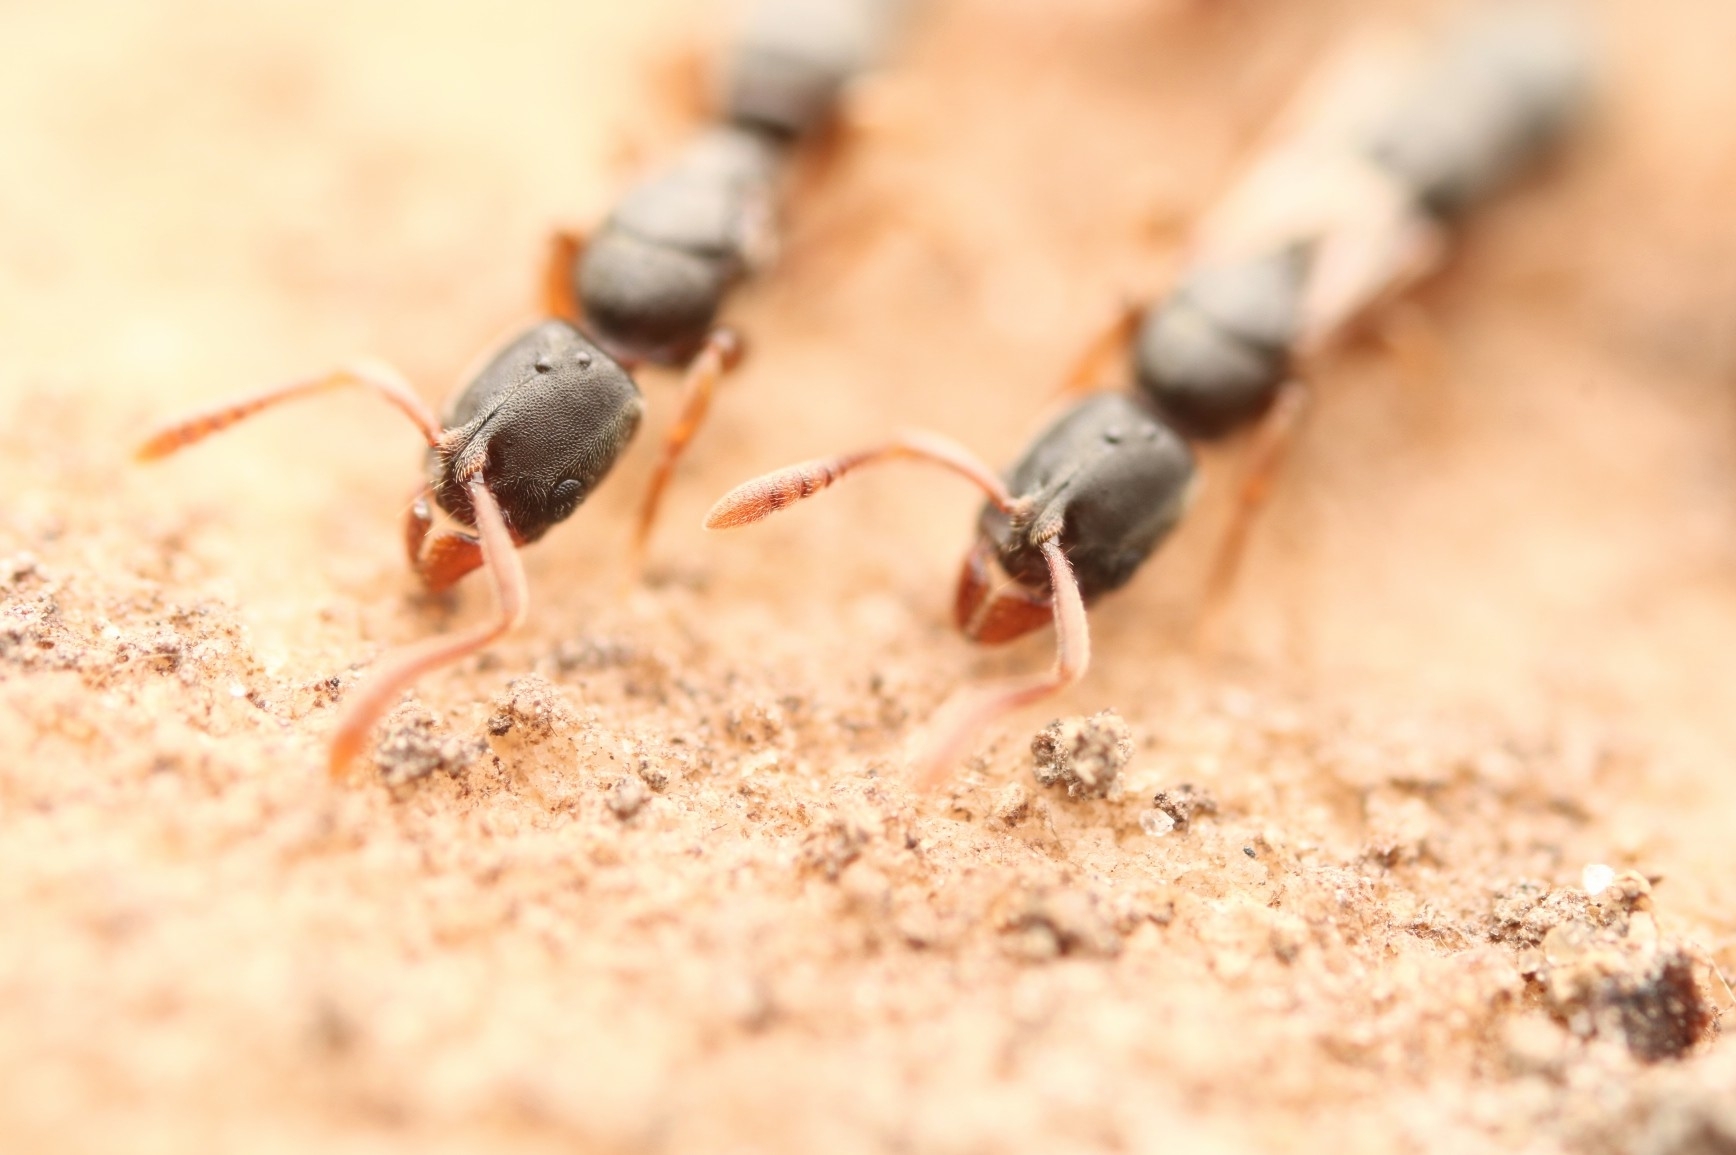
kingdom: Animalia
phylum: Arthropoda
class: Insecta
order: Hymenoptera
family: Formicidae
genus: Ponera
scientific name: Ponera pennsylvanica
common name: Pennsylvania ponera
